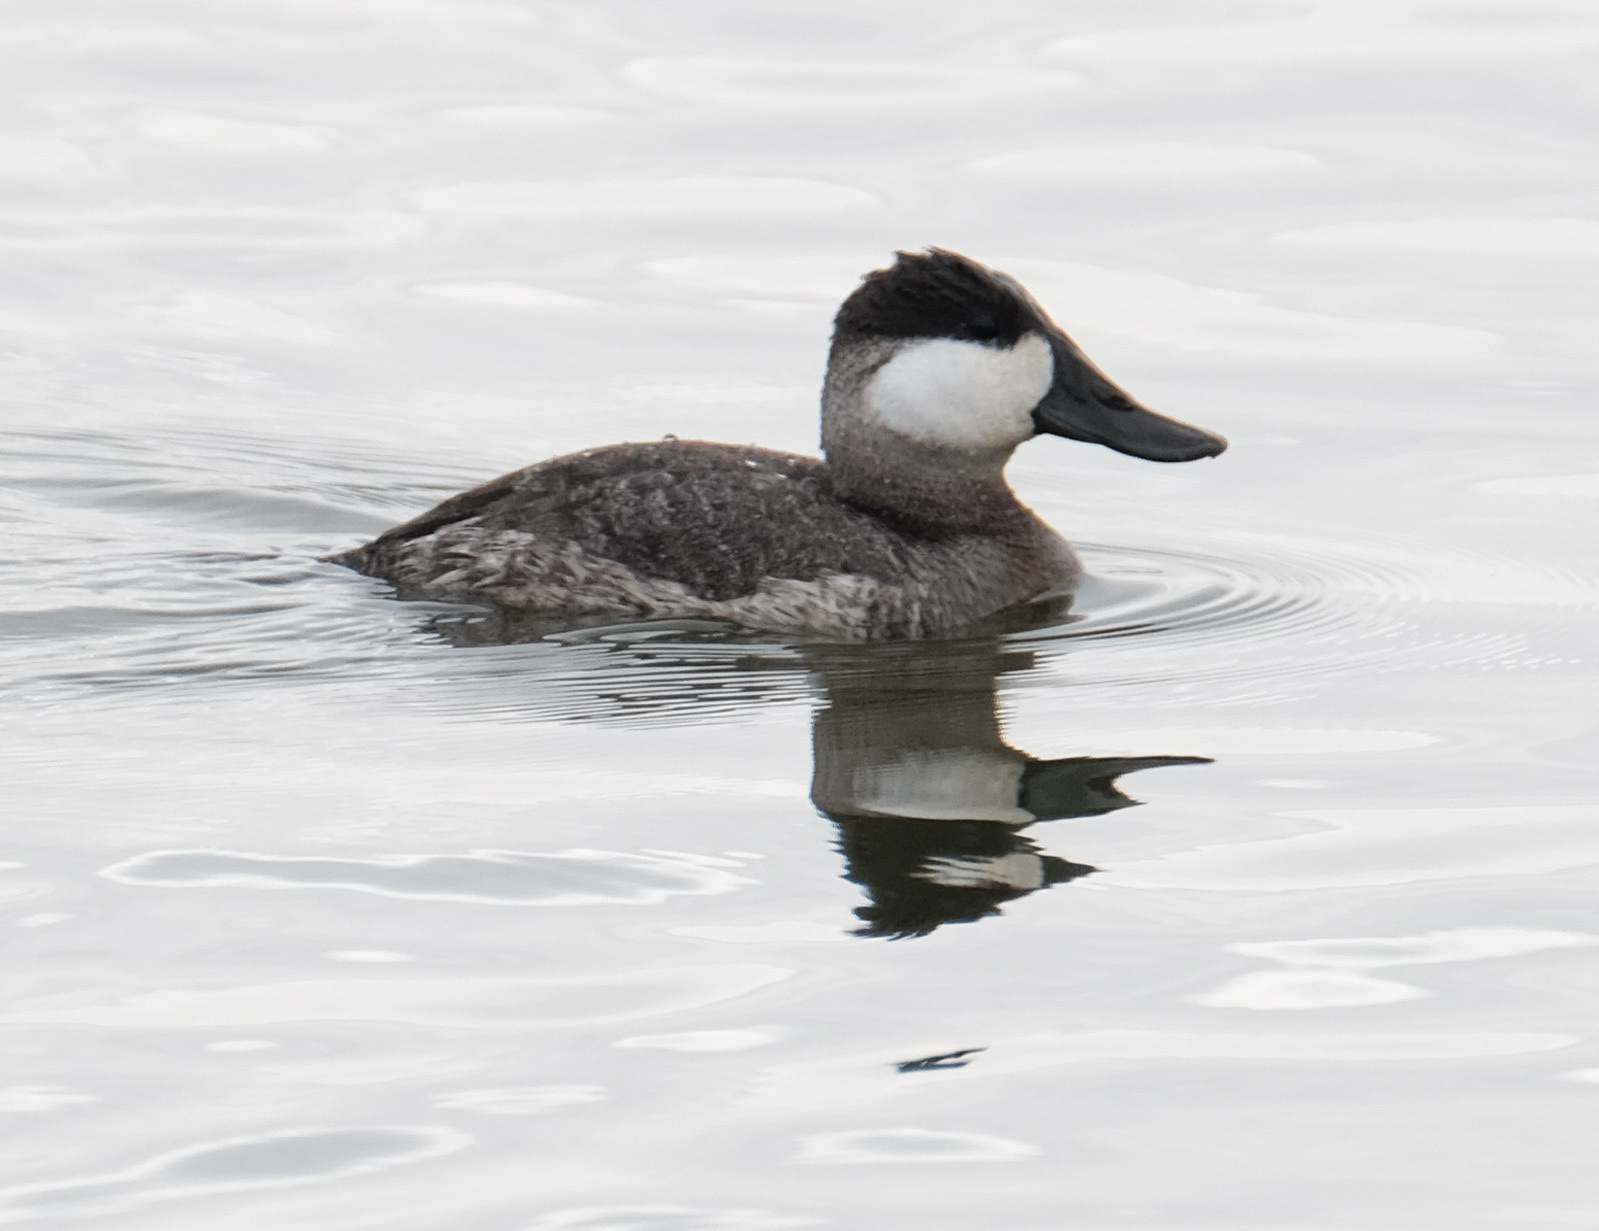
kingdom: Animalia
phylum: Chordata
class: Aves
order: Anseriformes
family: Anatidae
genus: Oxyura
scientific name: Oxyura jamaicensis
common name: Ruddy duck
